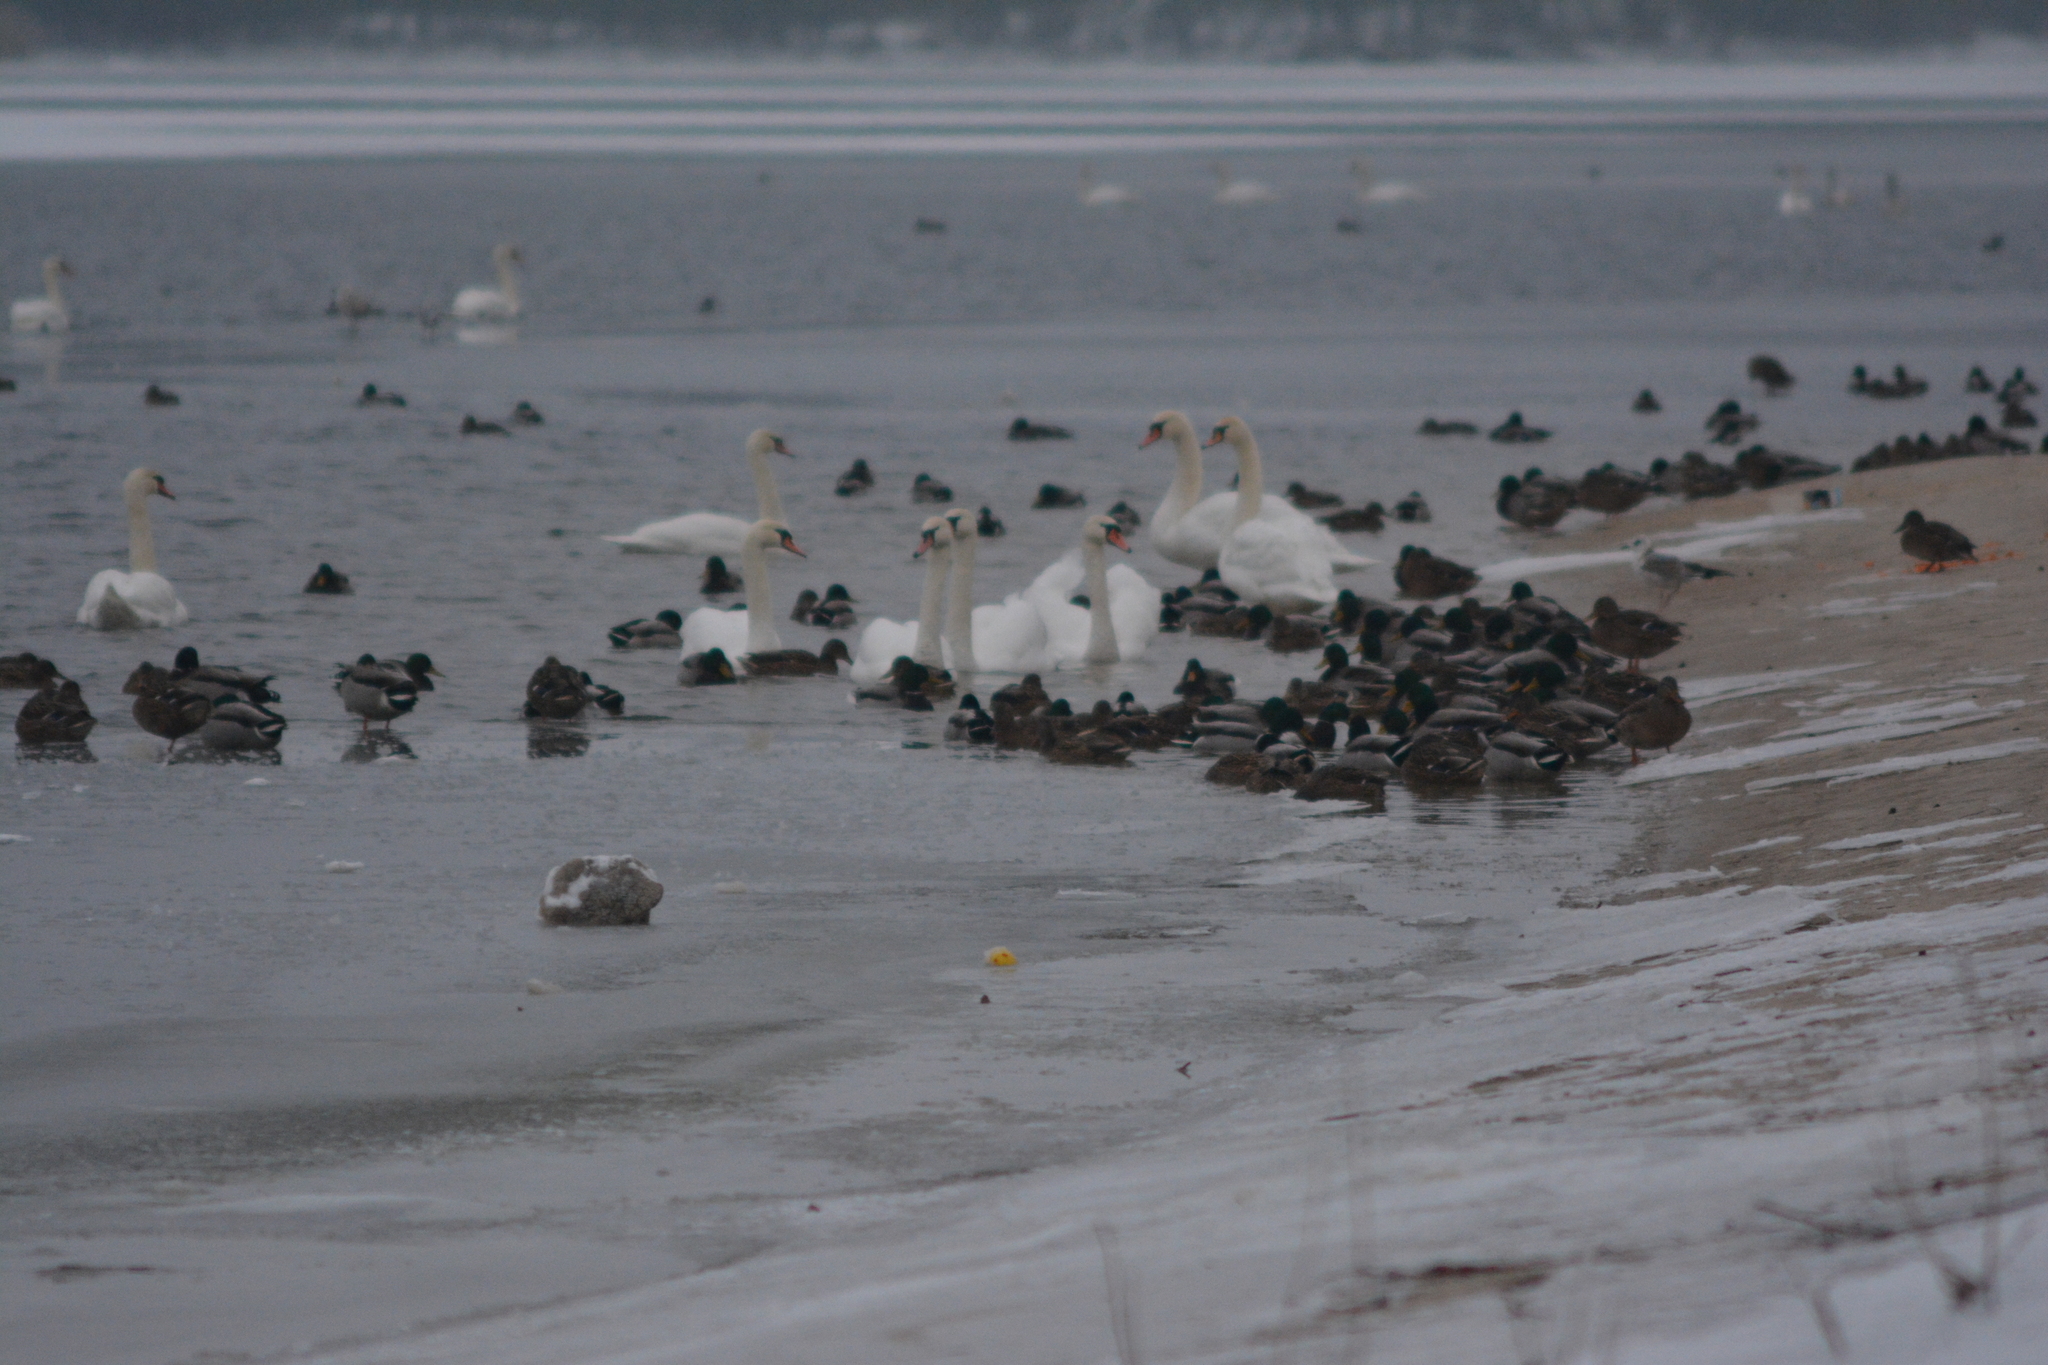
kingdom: Animalia
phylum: Chordata
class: Aves
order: Anseriformes
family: Anatidae
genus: Cygnus
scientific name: Cygnus olor
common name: Mute swan
